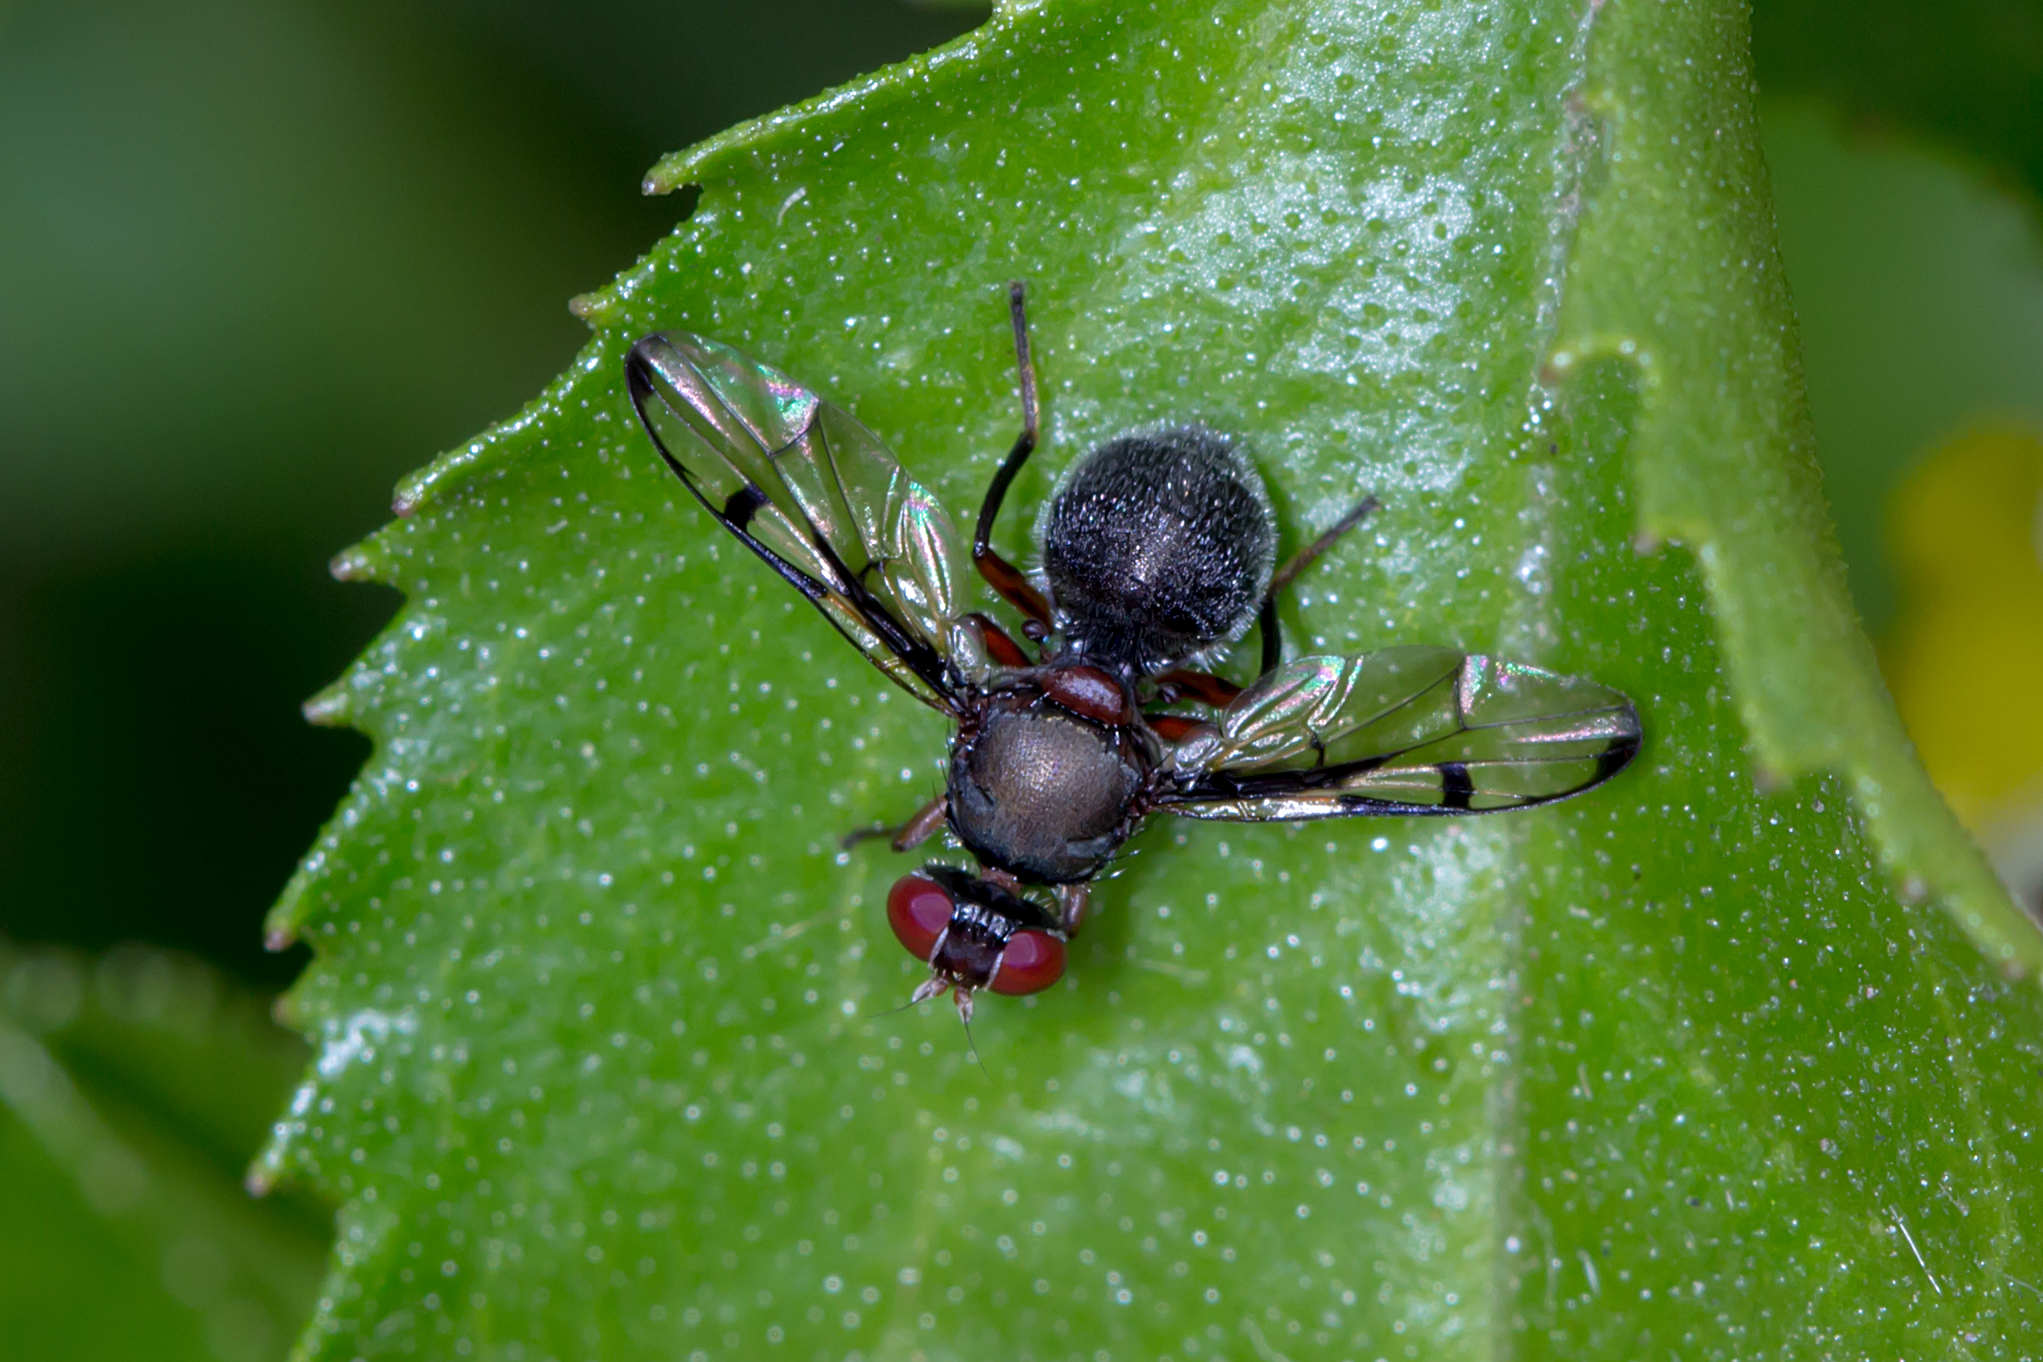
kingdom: Animalia
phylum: Arthropoda
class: Insecta
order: Diptera
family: Platystomatidae
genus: Pogonortalis
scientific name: Pogonortalis doclea
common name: Boatman fly
